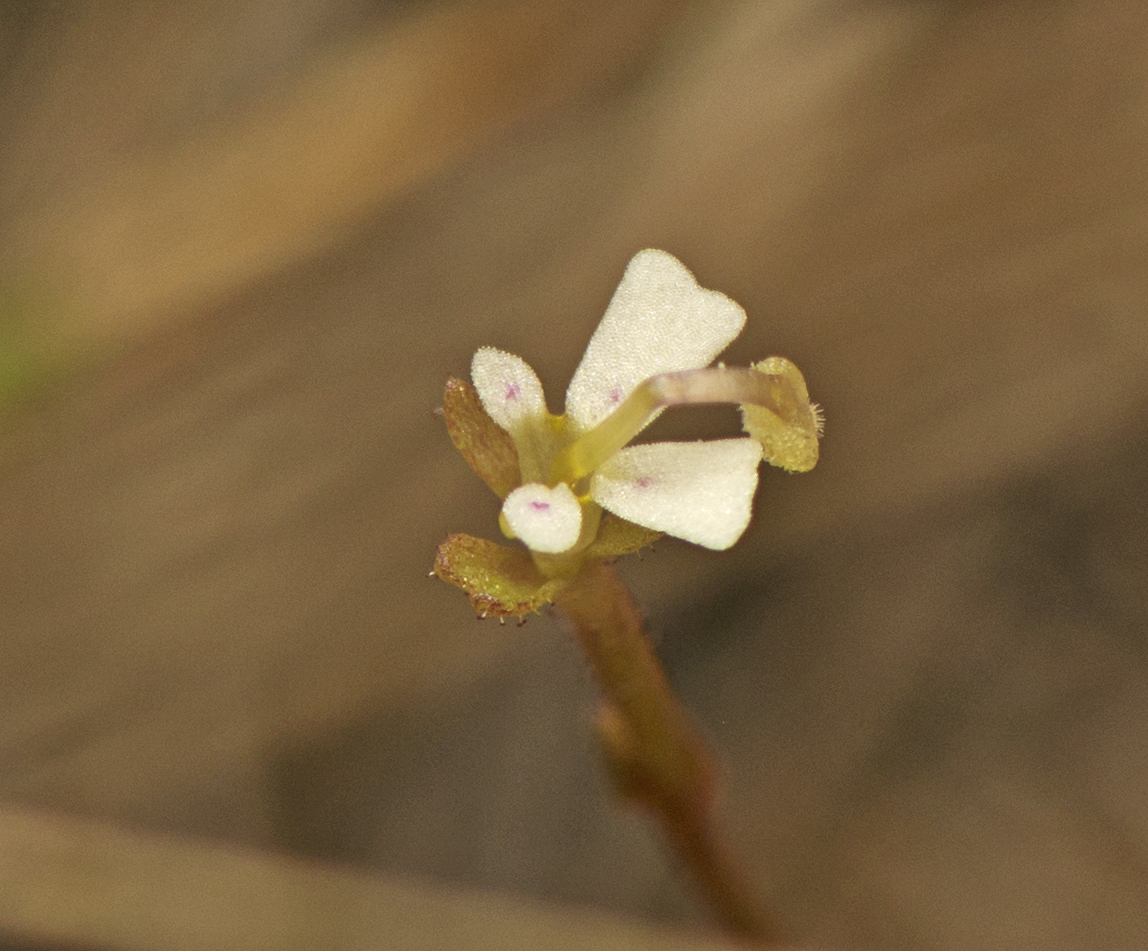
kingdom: Plantae
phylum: Tracheophyta
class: Magnoliopsida
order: Asterales
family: Stylidiaceae
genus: Stylidium
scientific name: Stylidium tenerum
